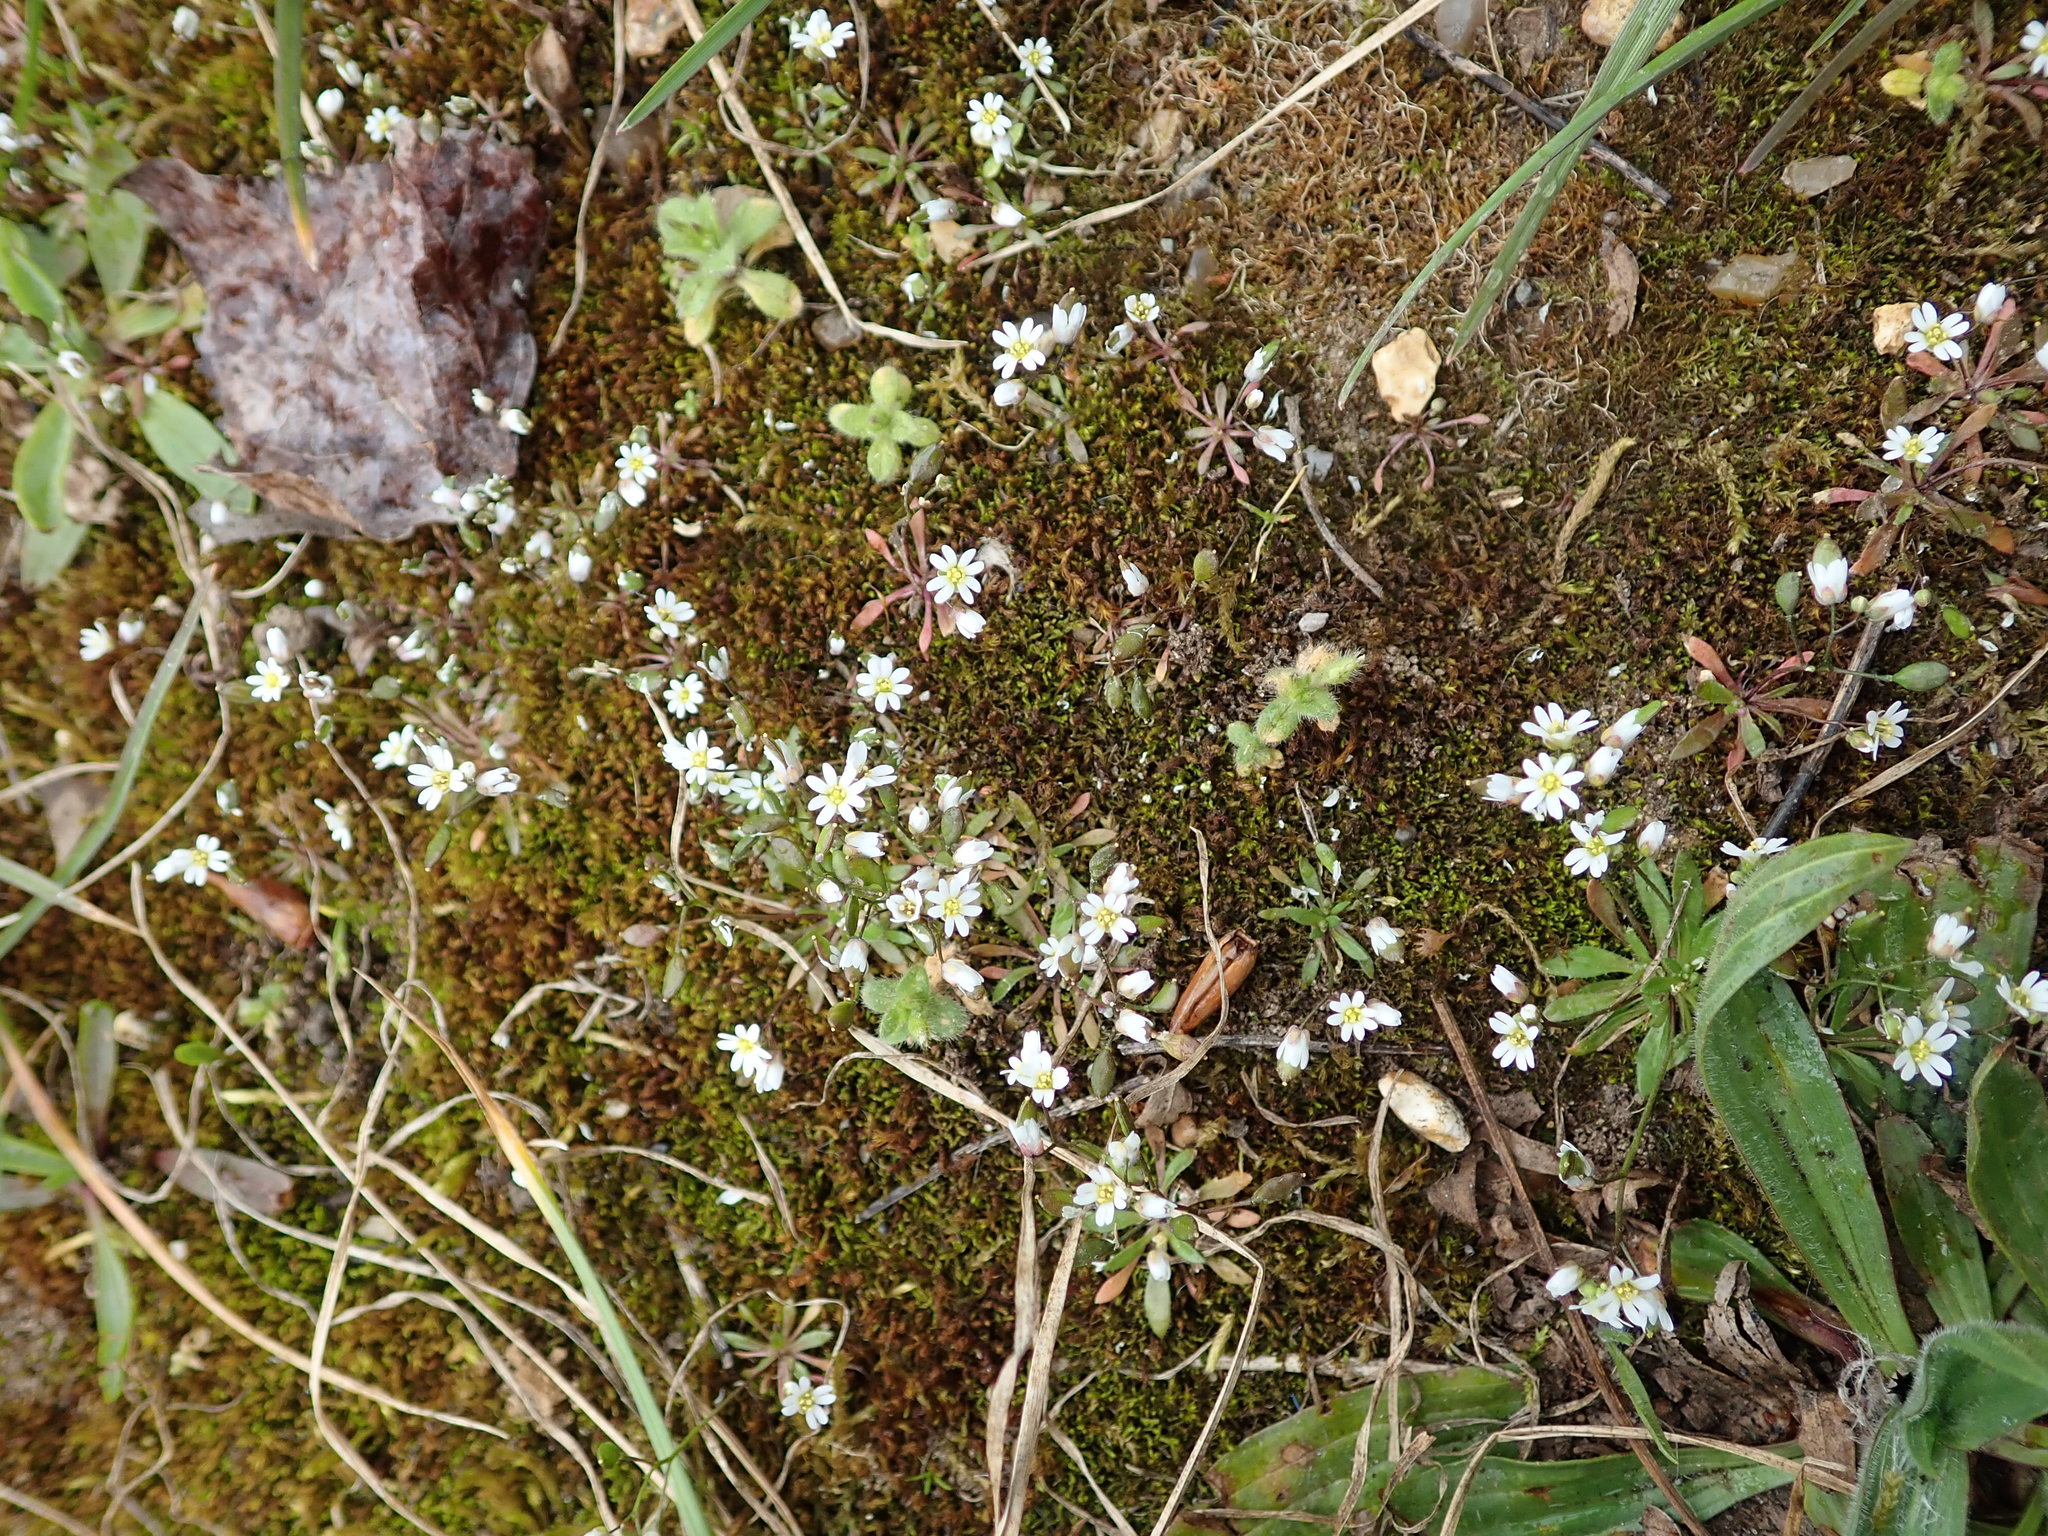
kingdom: Plantae
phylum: Tracheophyta
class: Magnoliopsida
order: Brassicales
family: Brassicaceae
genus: Draba
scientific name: Draba verna
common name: Spring draba
